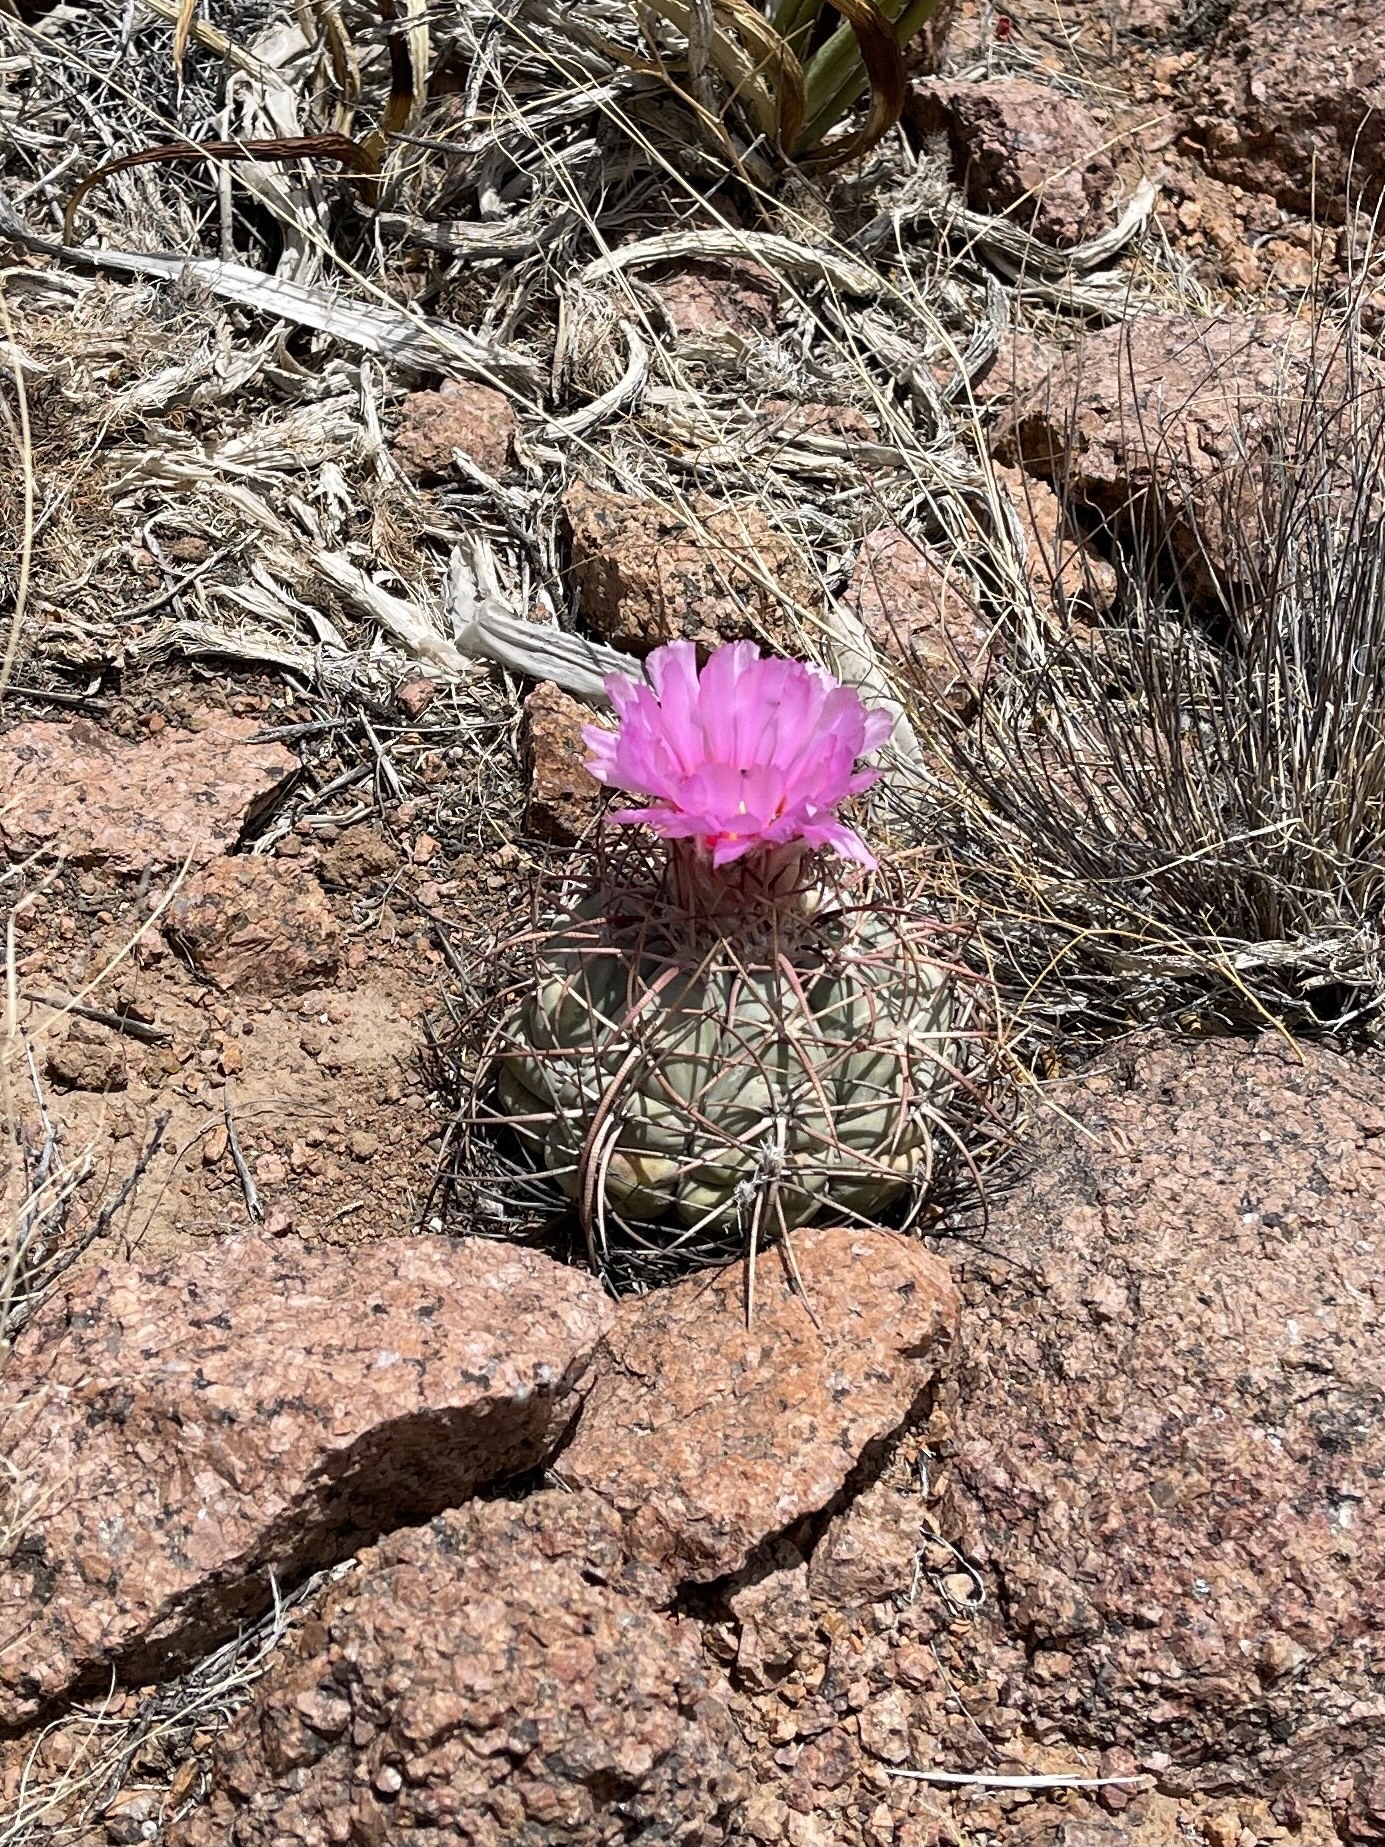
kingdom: Plantae
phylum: Tracheophyta
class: Magnoliopsida
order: Caryophyllales
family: Cactaceae
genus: Echinocactus
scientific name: Echinocactus horizonthalonius
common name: Devilshead
